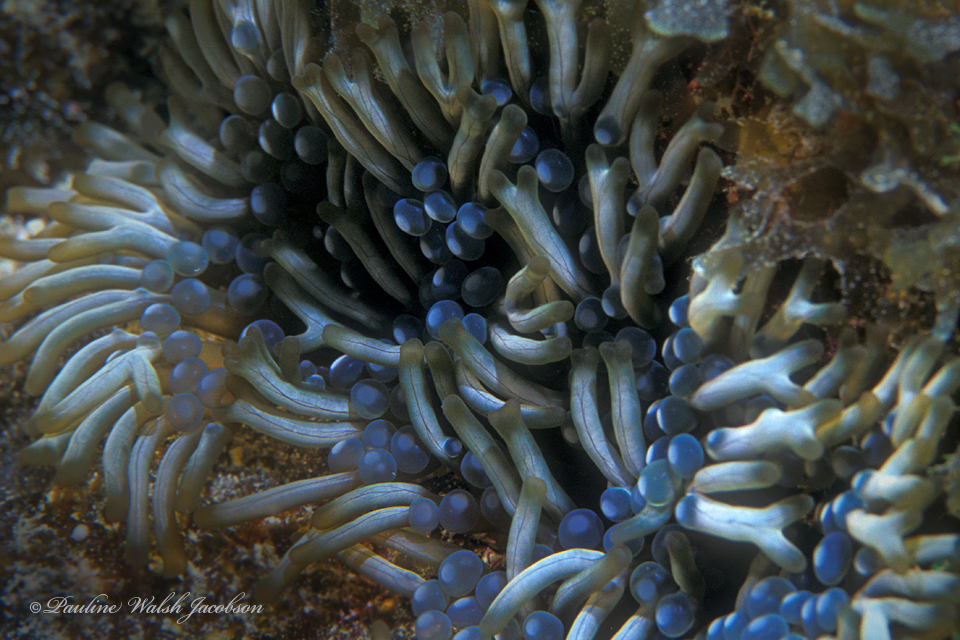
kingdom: Animalia
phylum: Cnidaria
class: Anthozoa
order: Actiniaria
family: Aliciidae
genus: Lebrunia
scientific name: Lebrunia neglecta
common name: Branching anemone
